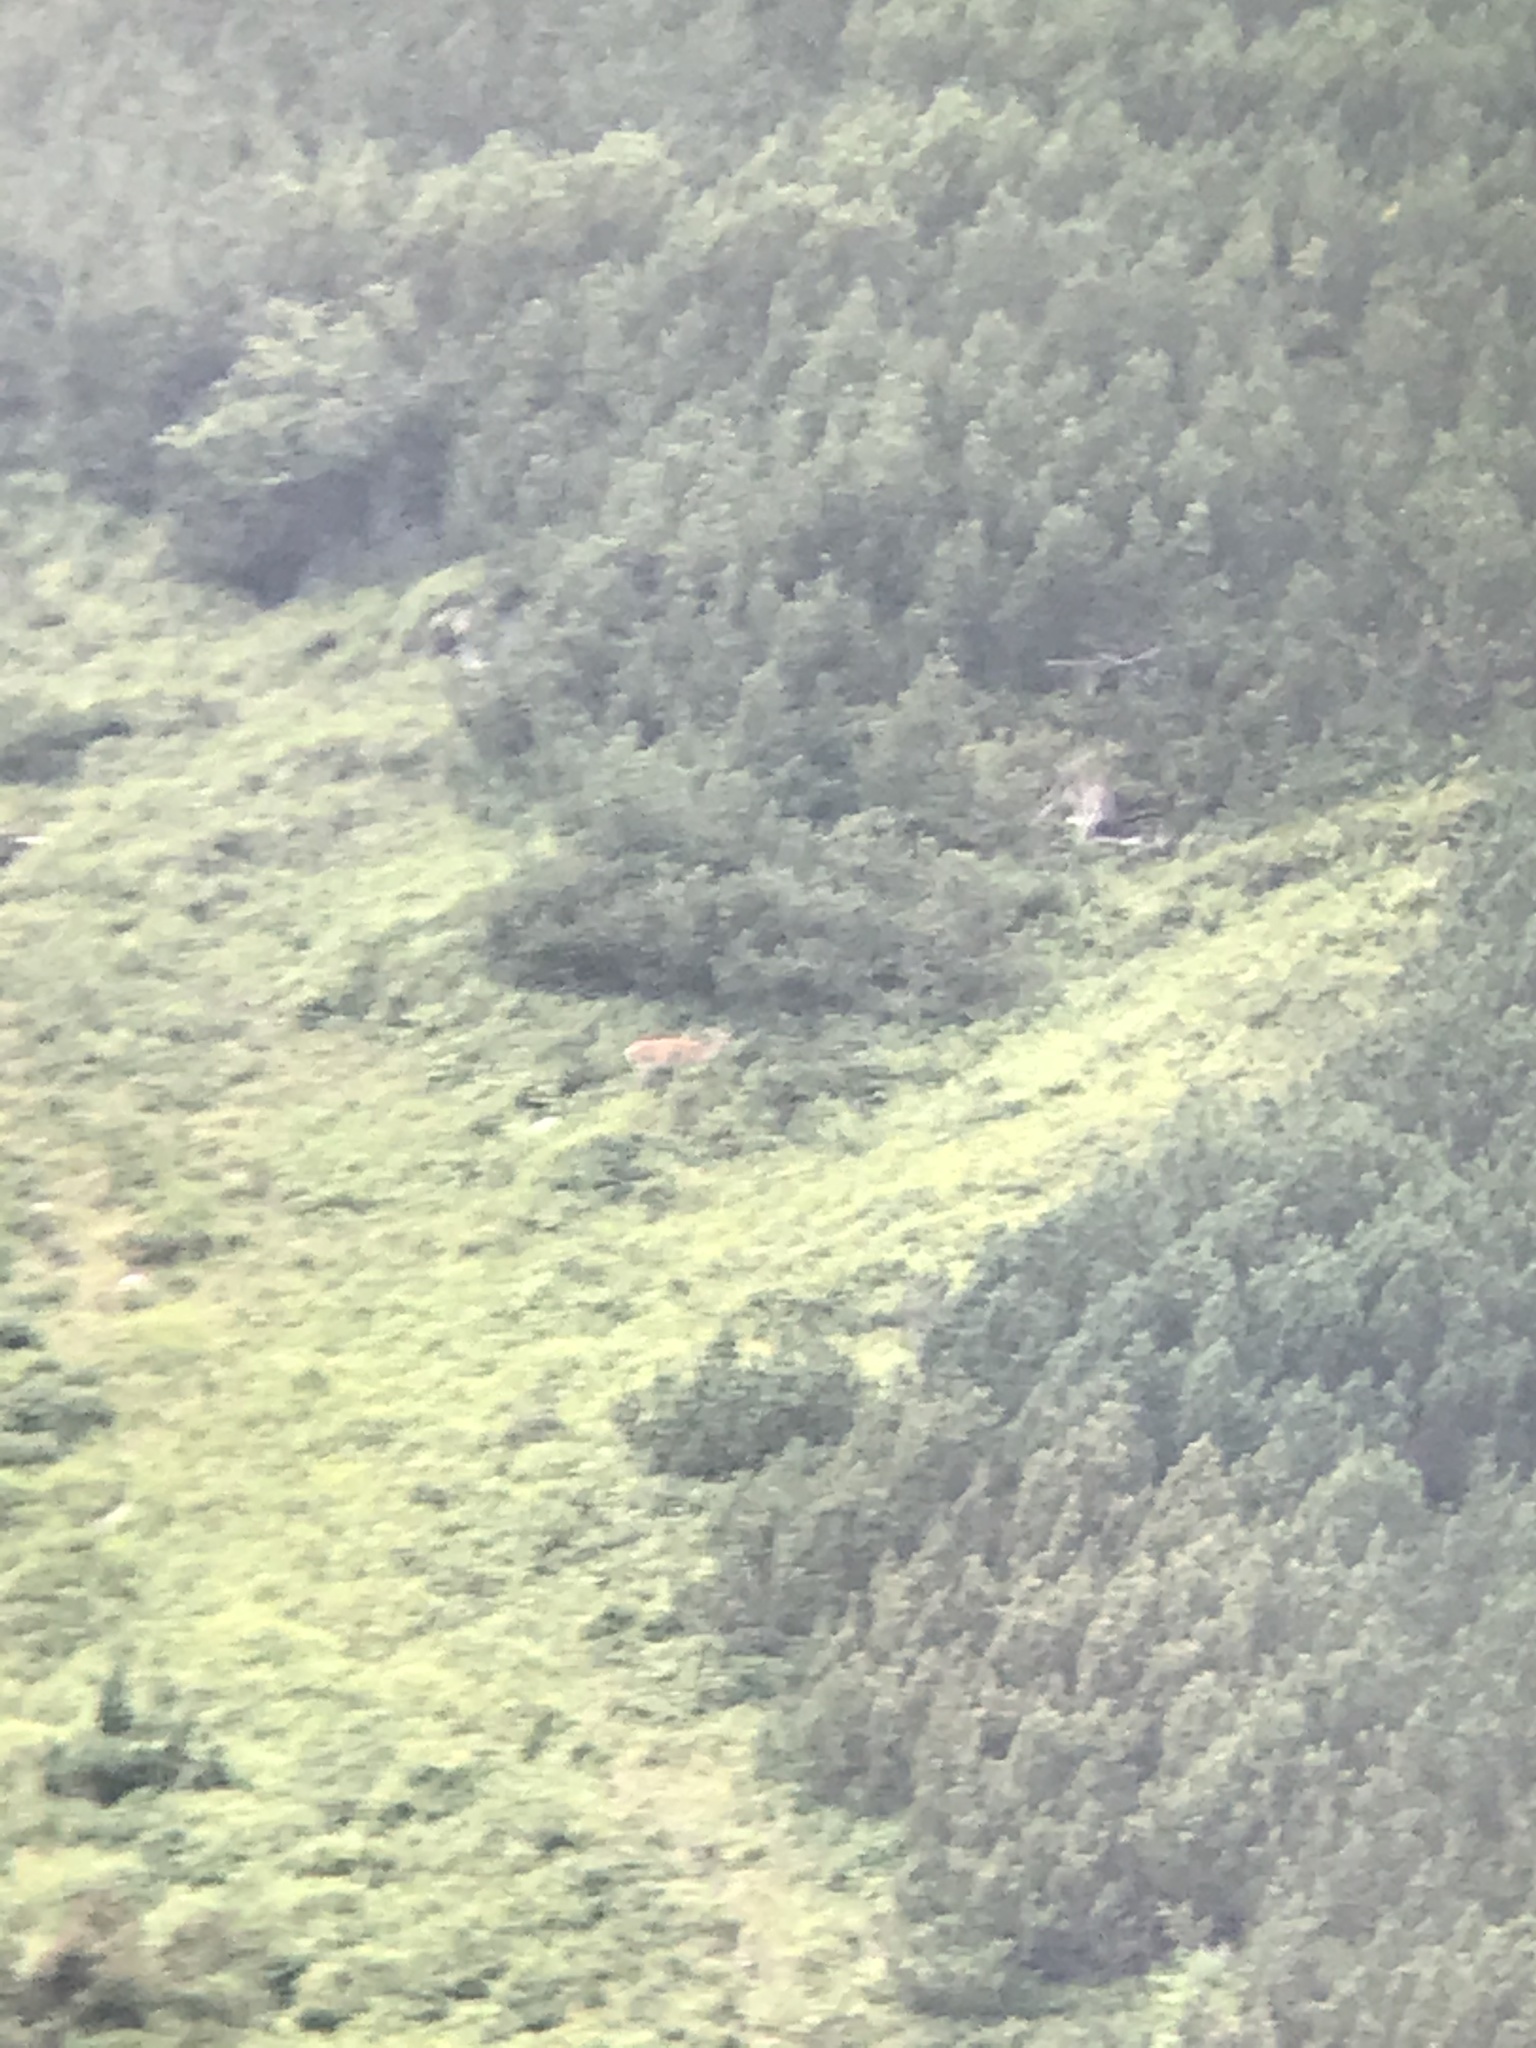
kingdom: Animalia
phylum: Chordata
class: Mammalia
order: Artiodactyla
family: Cervidae
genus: Cervus
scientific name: Cervus elaphus
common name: Red deer
